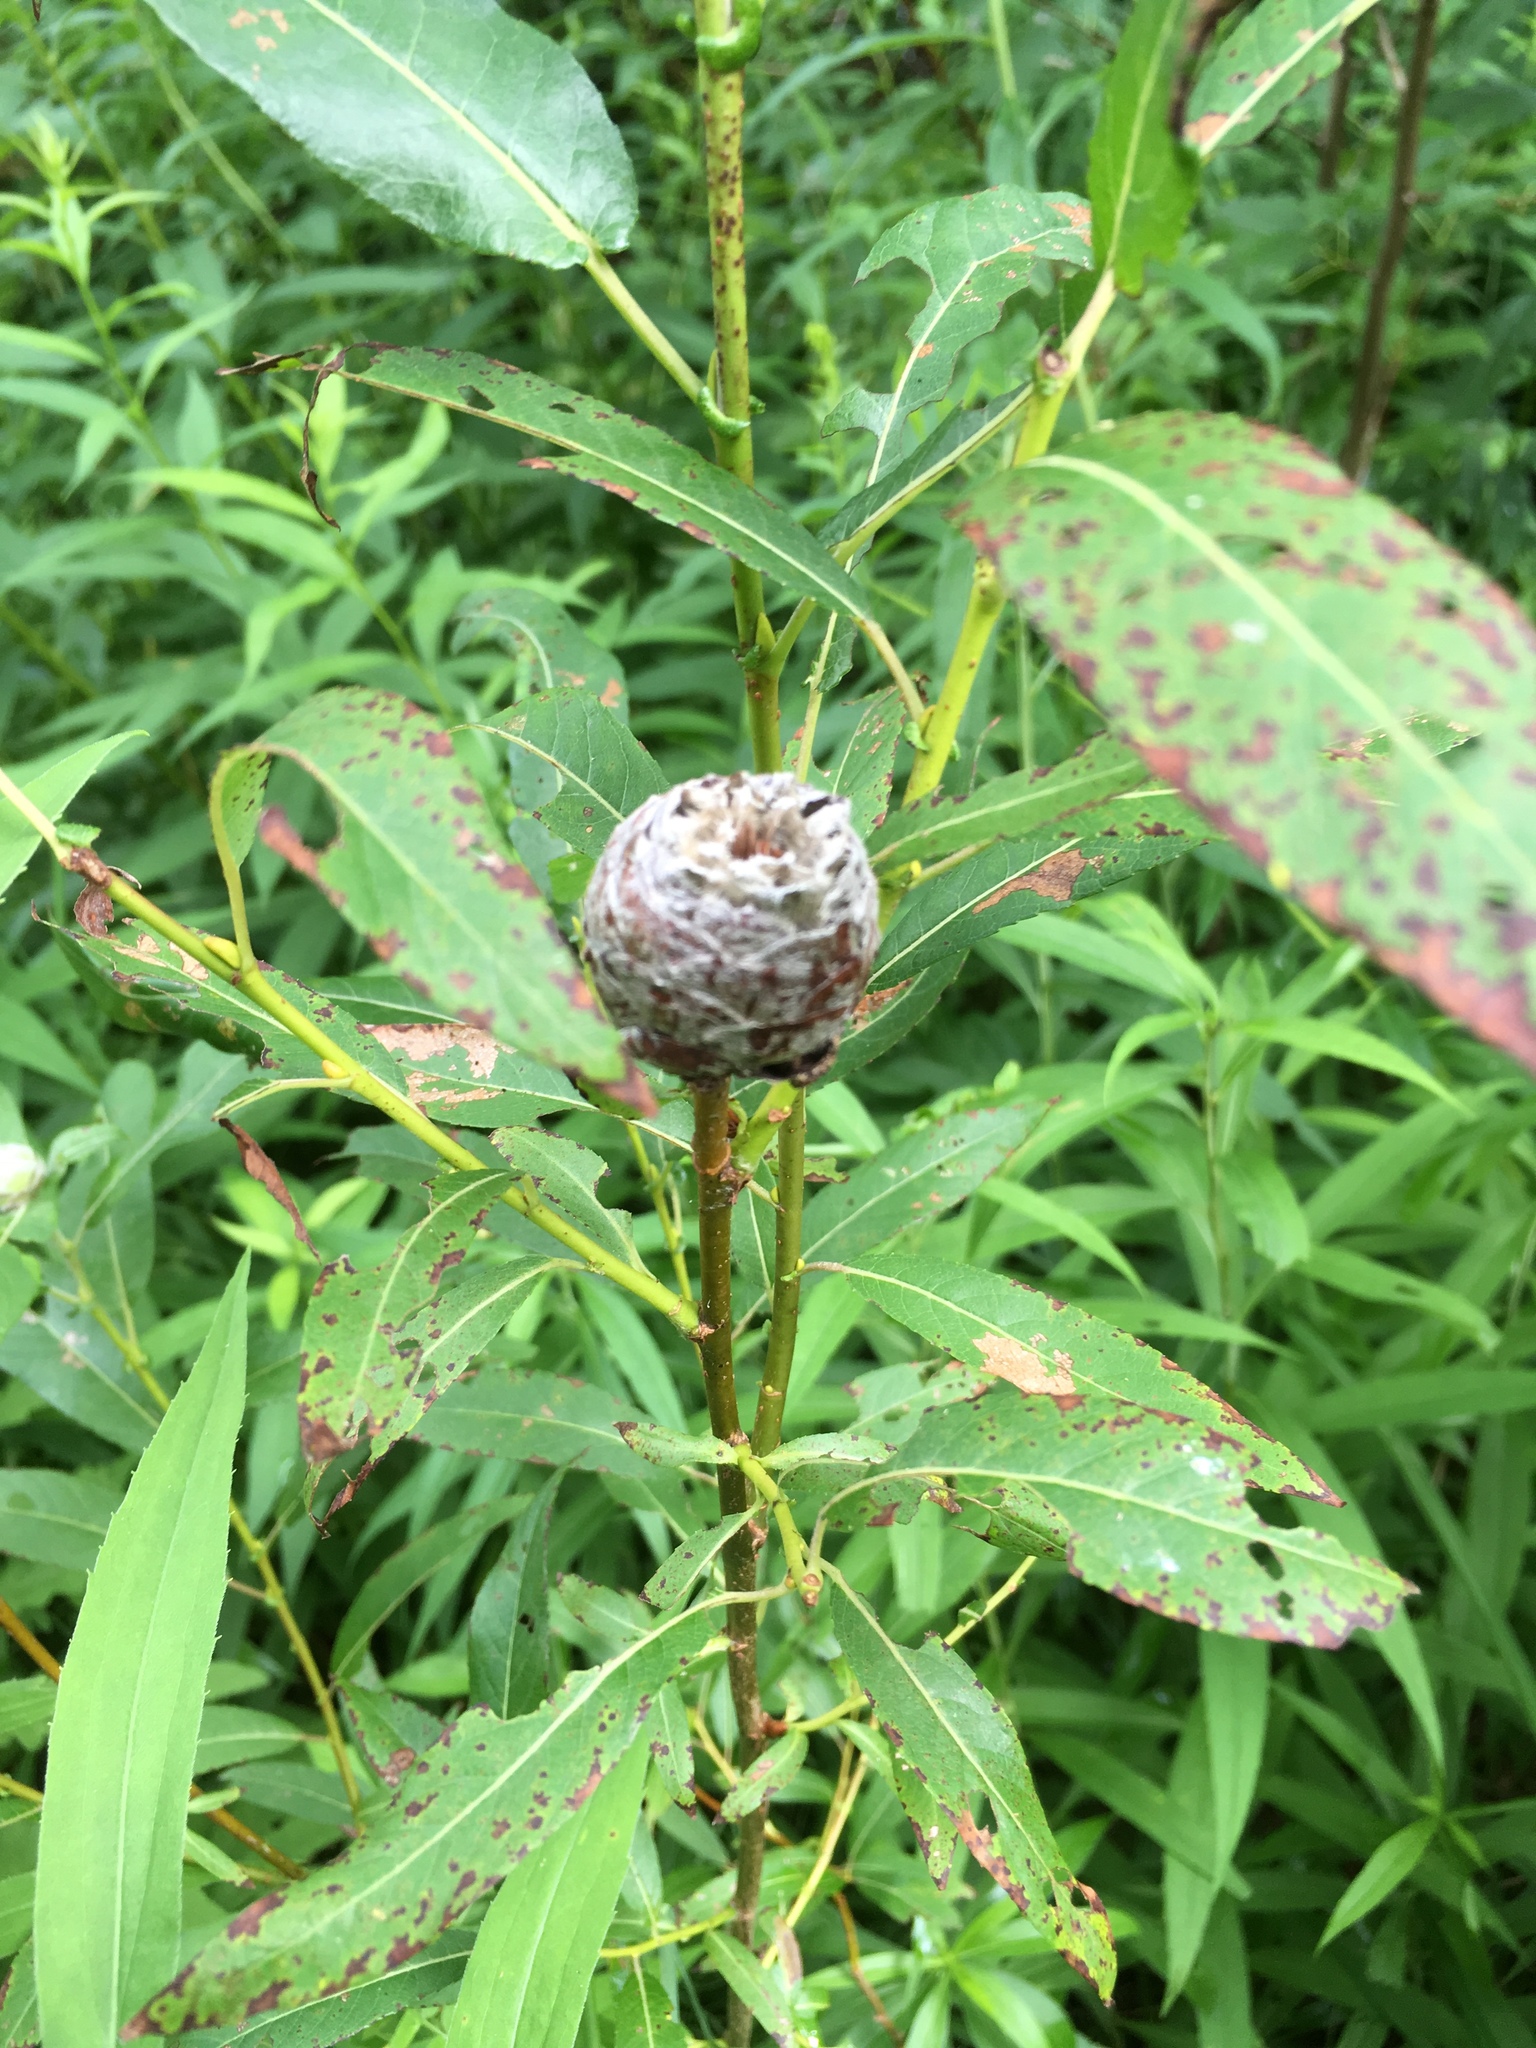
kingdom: Animalia
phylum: Arthropoda
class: Insecta
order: Diptera
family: Cecidomyiidae
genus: Rabdophaga
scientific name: Rabdophaga strobiloides
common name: Willow pinecone gall midge
